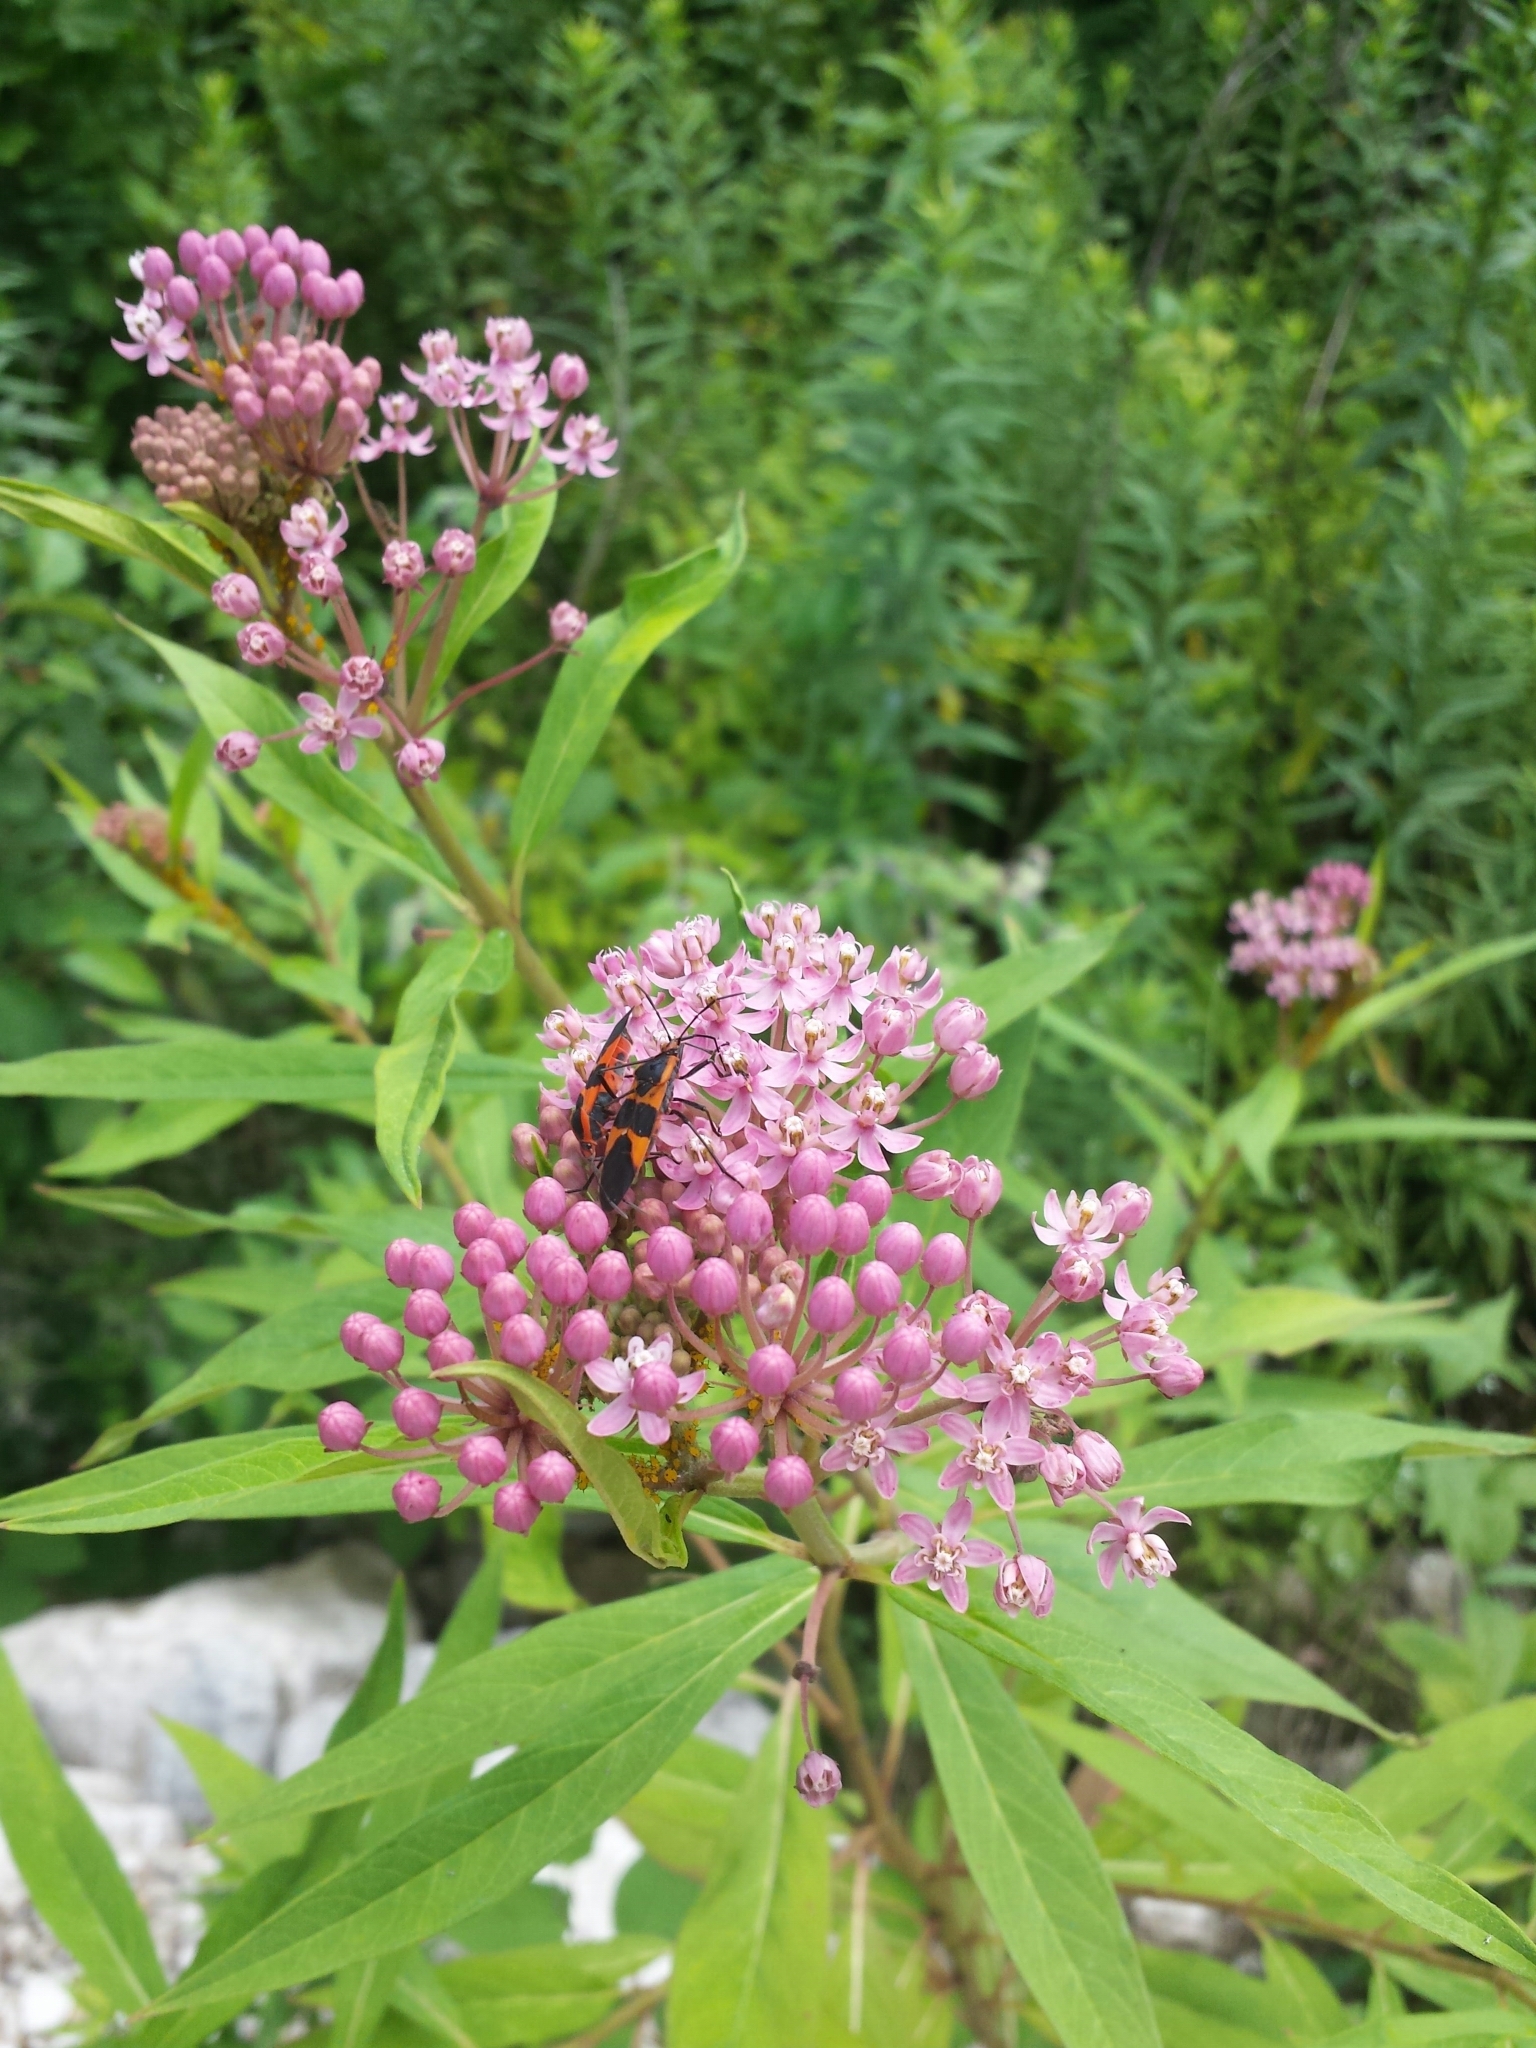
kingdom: Plantae
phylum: Tracheophyta
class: Magnoliopsida
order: Gentianales
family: Apocynaceae
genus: Asclepias
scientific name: Asclepias incarnata
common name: Swamp milkweed
